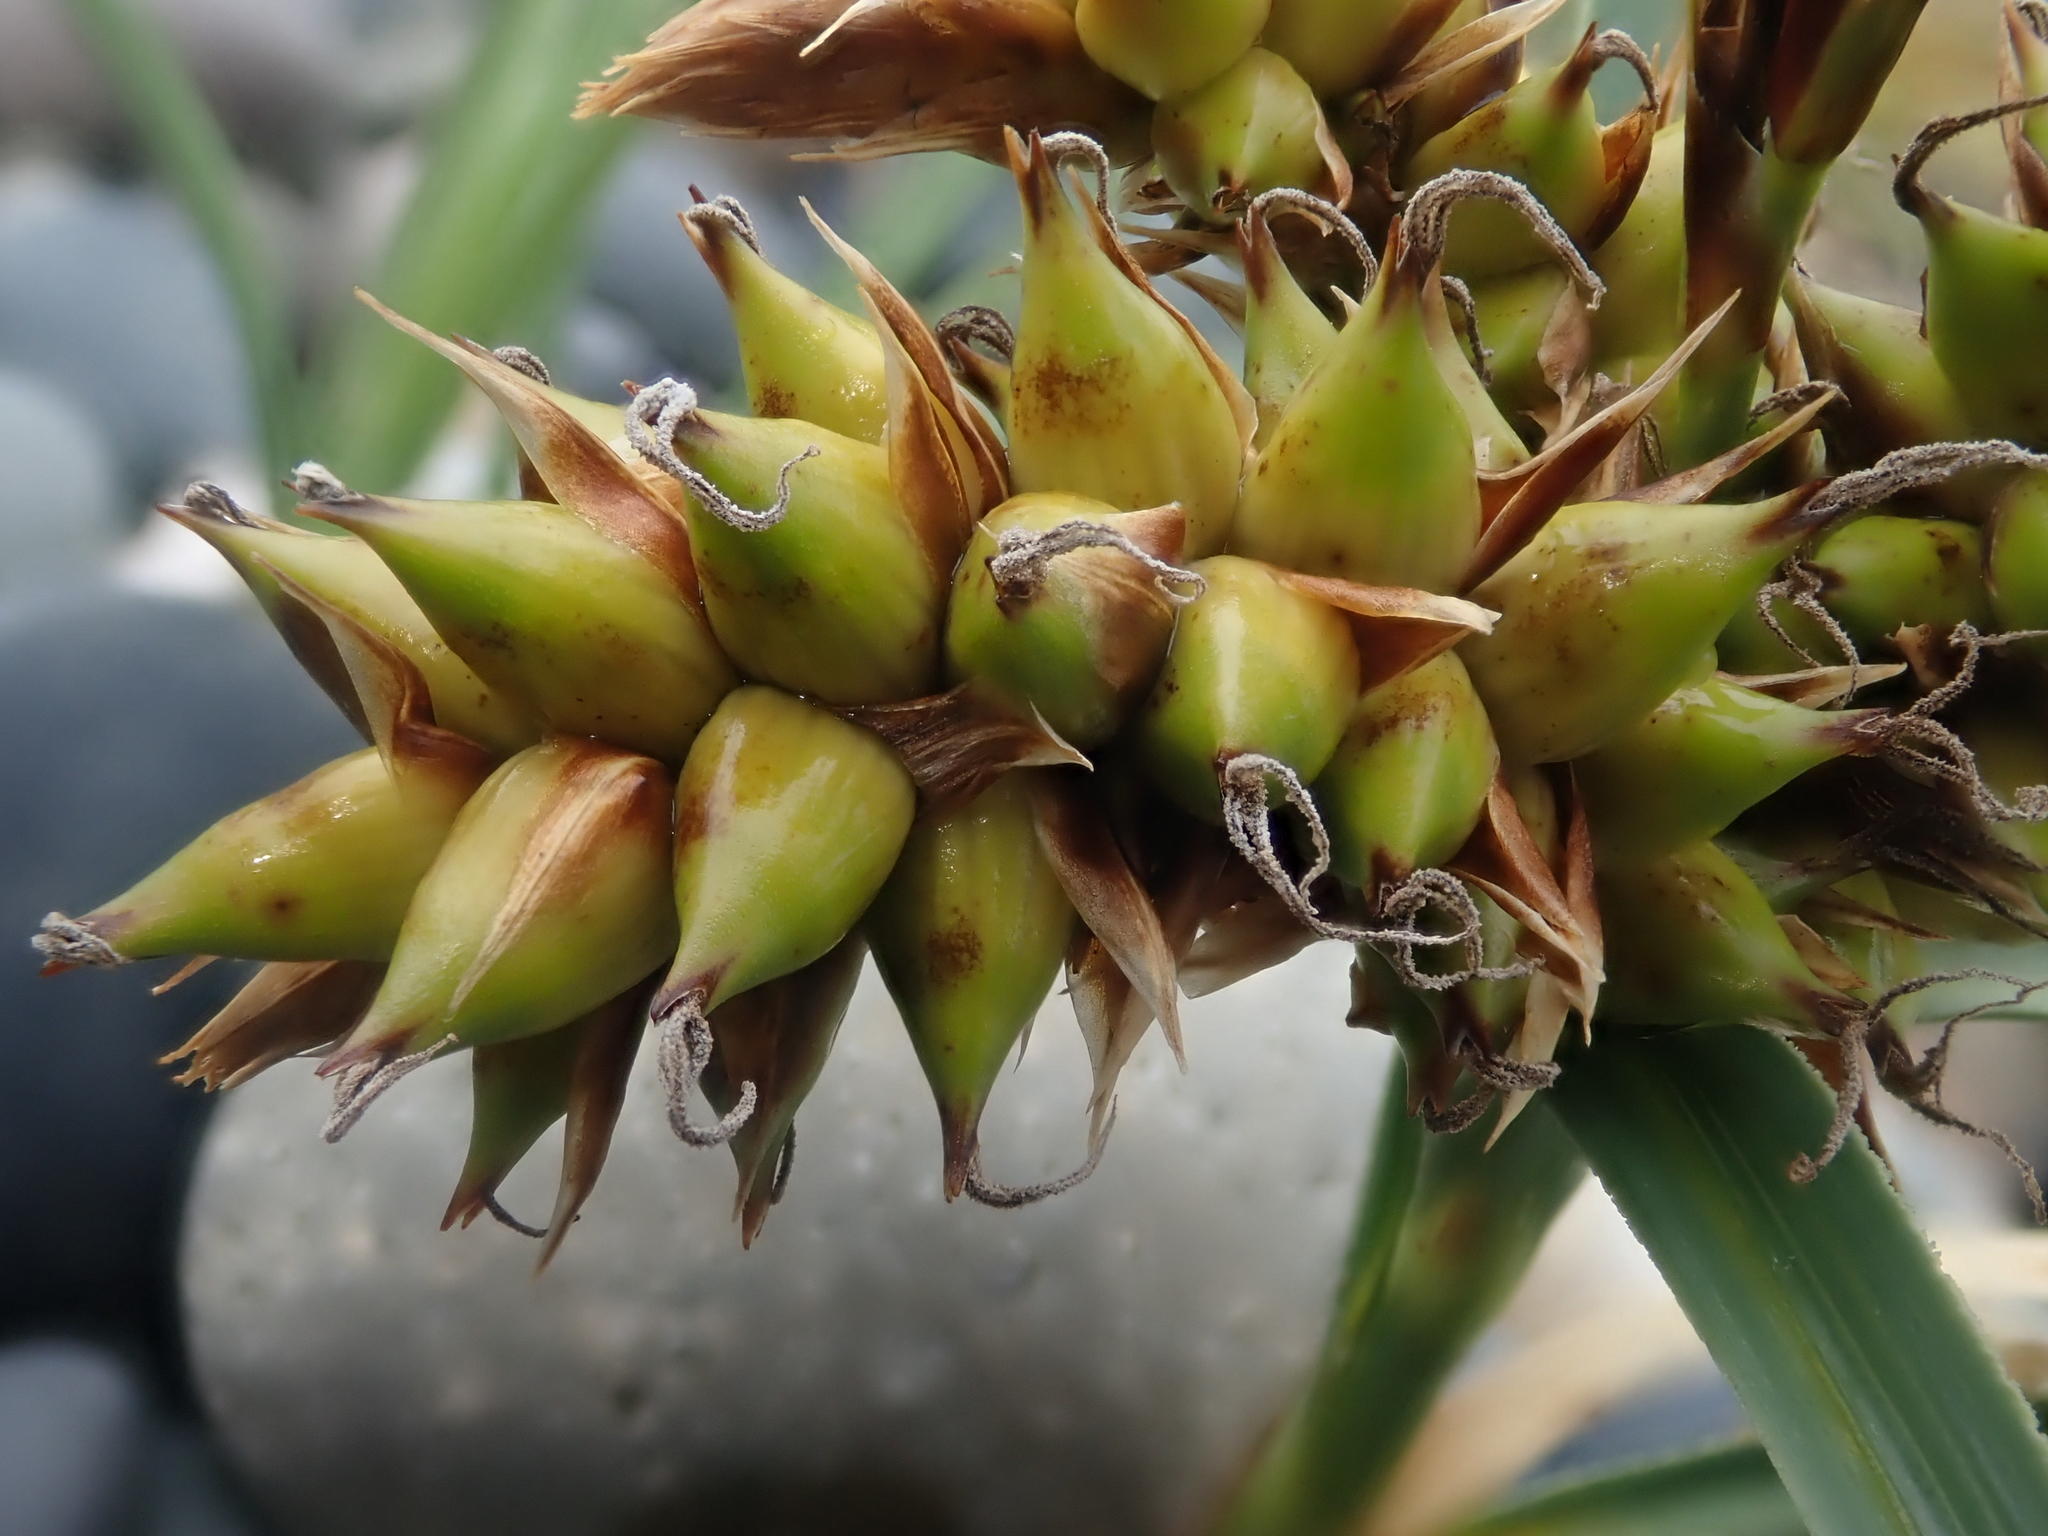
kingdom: Plantae
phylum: Tracheophyta
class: Liliopsida
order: Poales
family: Cyperaceae
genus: Carex
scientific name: Carex pumila
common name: Dwarf sedge
